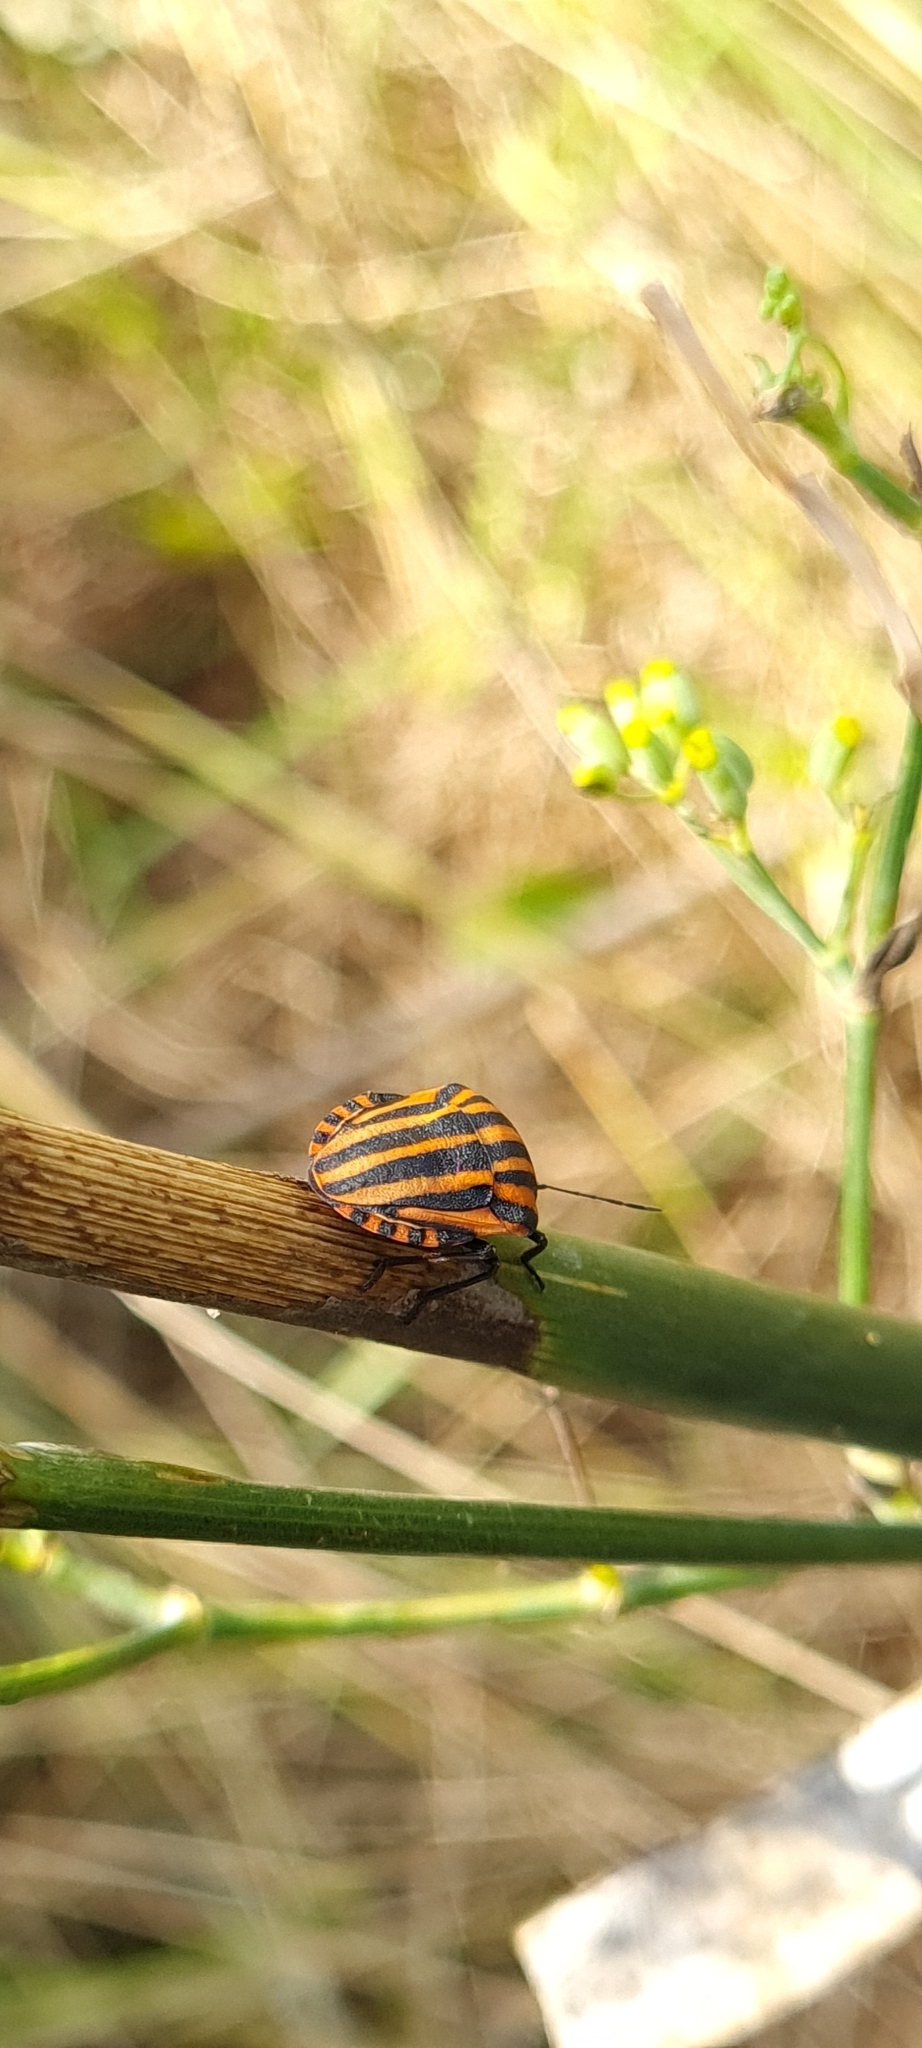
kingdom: Animalia
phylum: Arthropoda
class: Insecta
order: Hemiptera
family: Pentatomidae
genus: Graphosoma
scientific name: Graphosoma italicum
